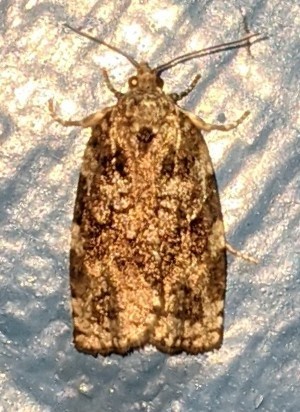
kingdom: Animalia
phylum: Arthropoda
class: Insecta
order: Lepidoptera
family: Tortricidae
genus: Choristoneura
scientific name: Choristoneura fumiferana
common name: Spruce budworm
